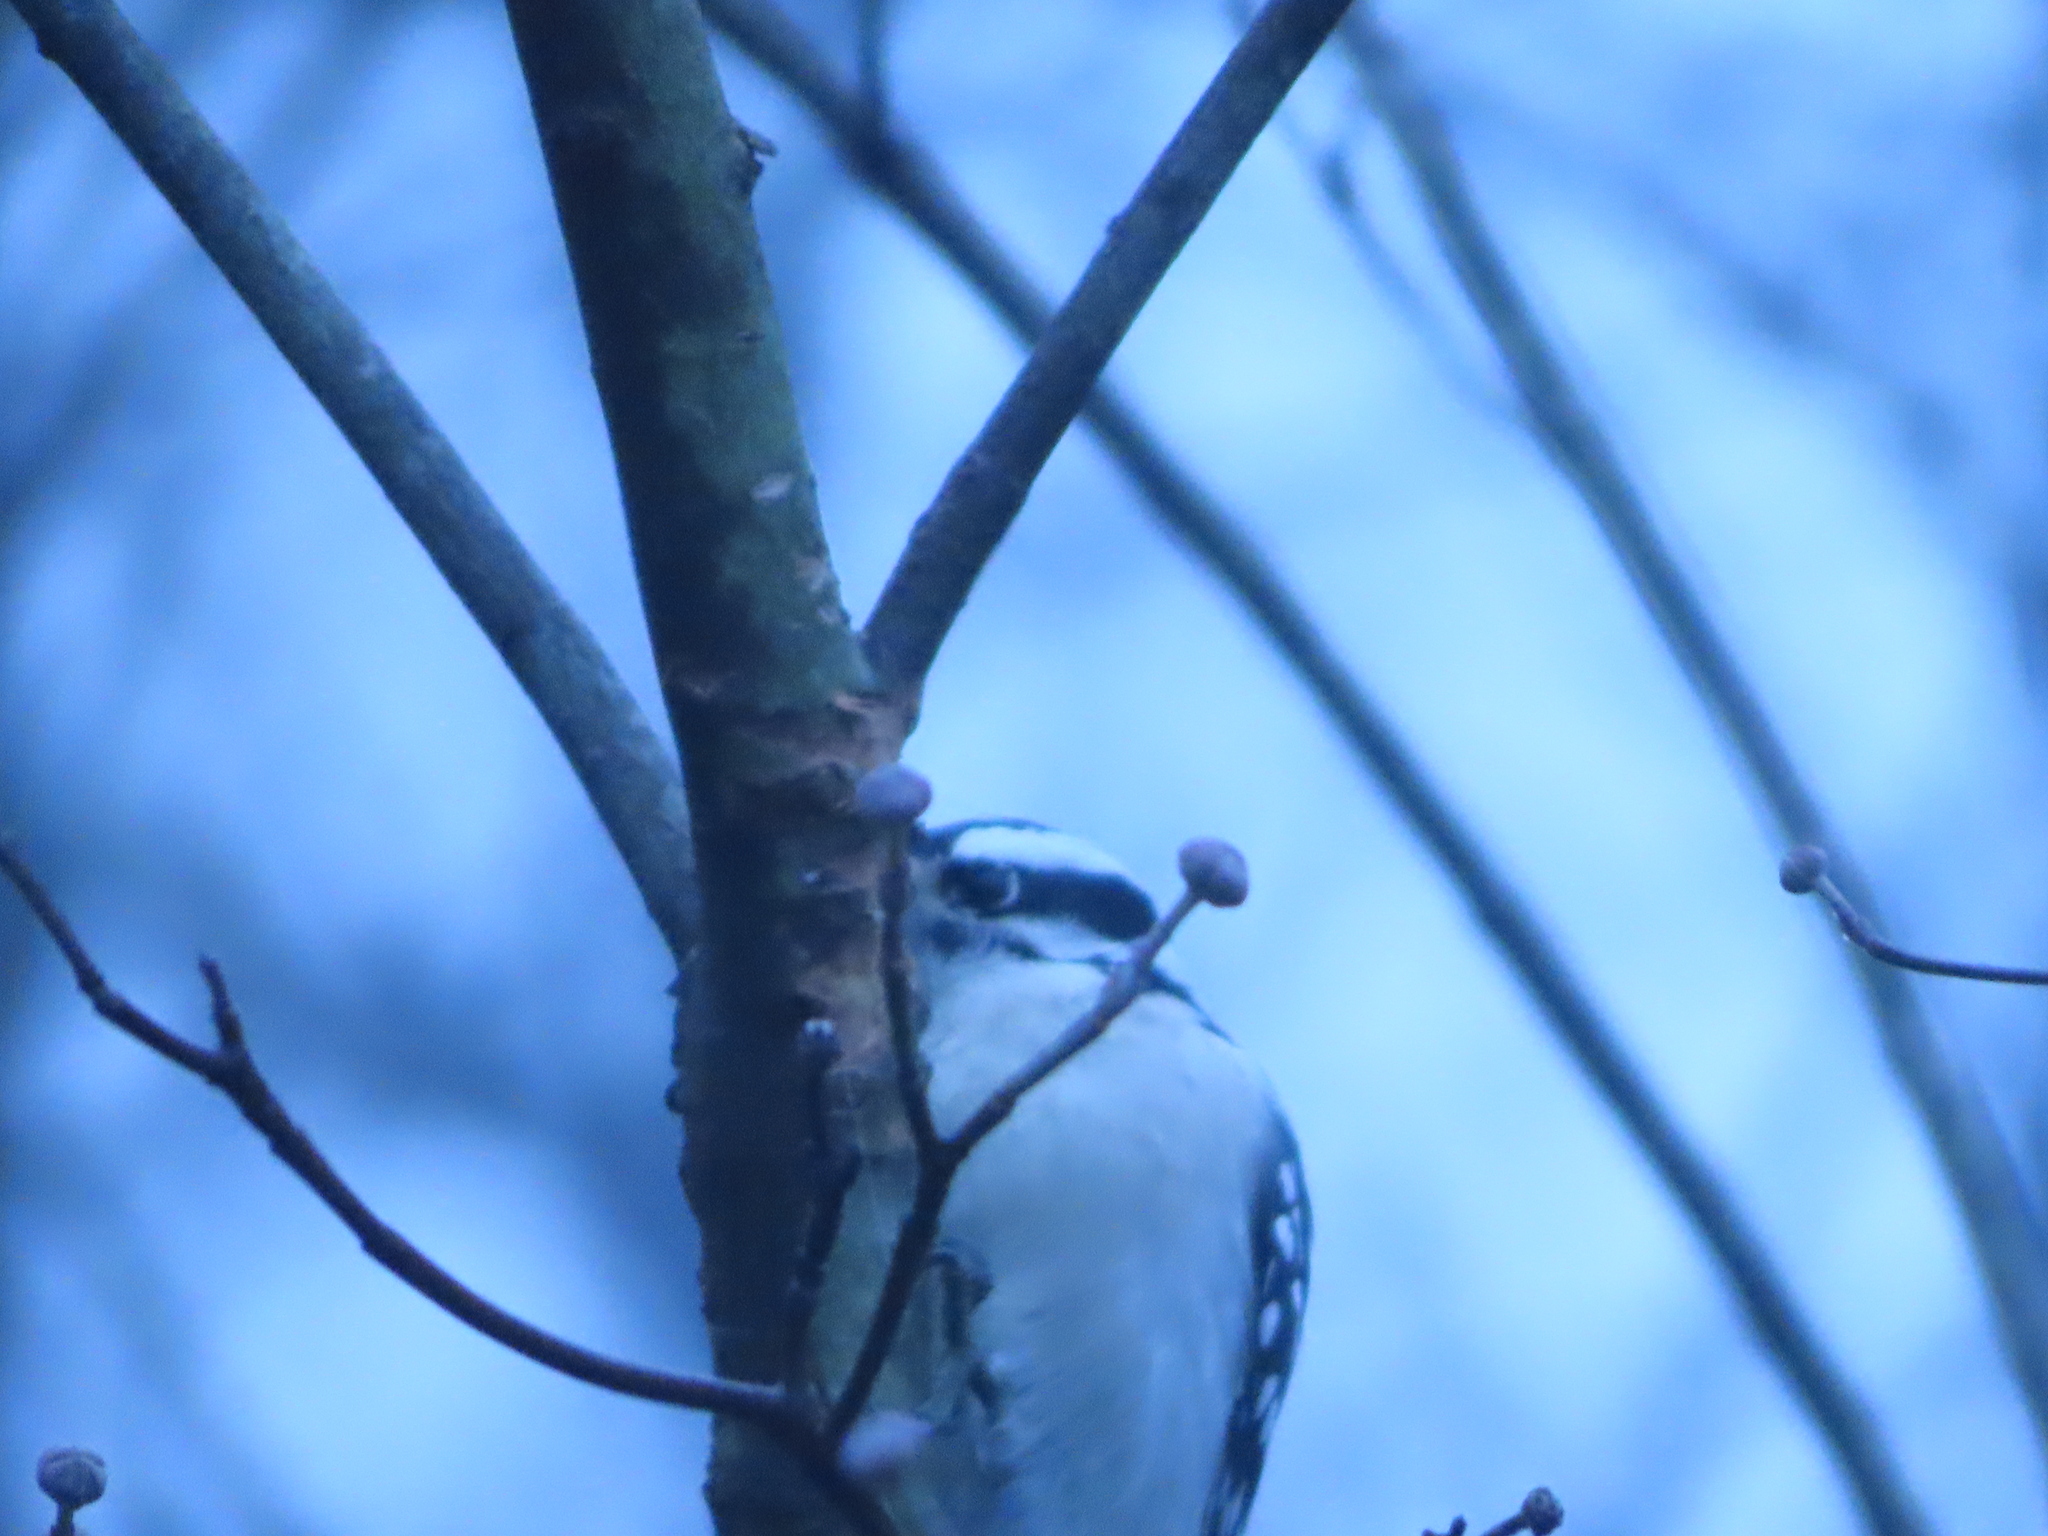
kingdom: Animalia
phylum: Chordata
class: Aves
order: Piciformes
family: Picidae
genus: Dryobates
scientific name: Dryobates pubescens
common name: Downy woodpecker
